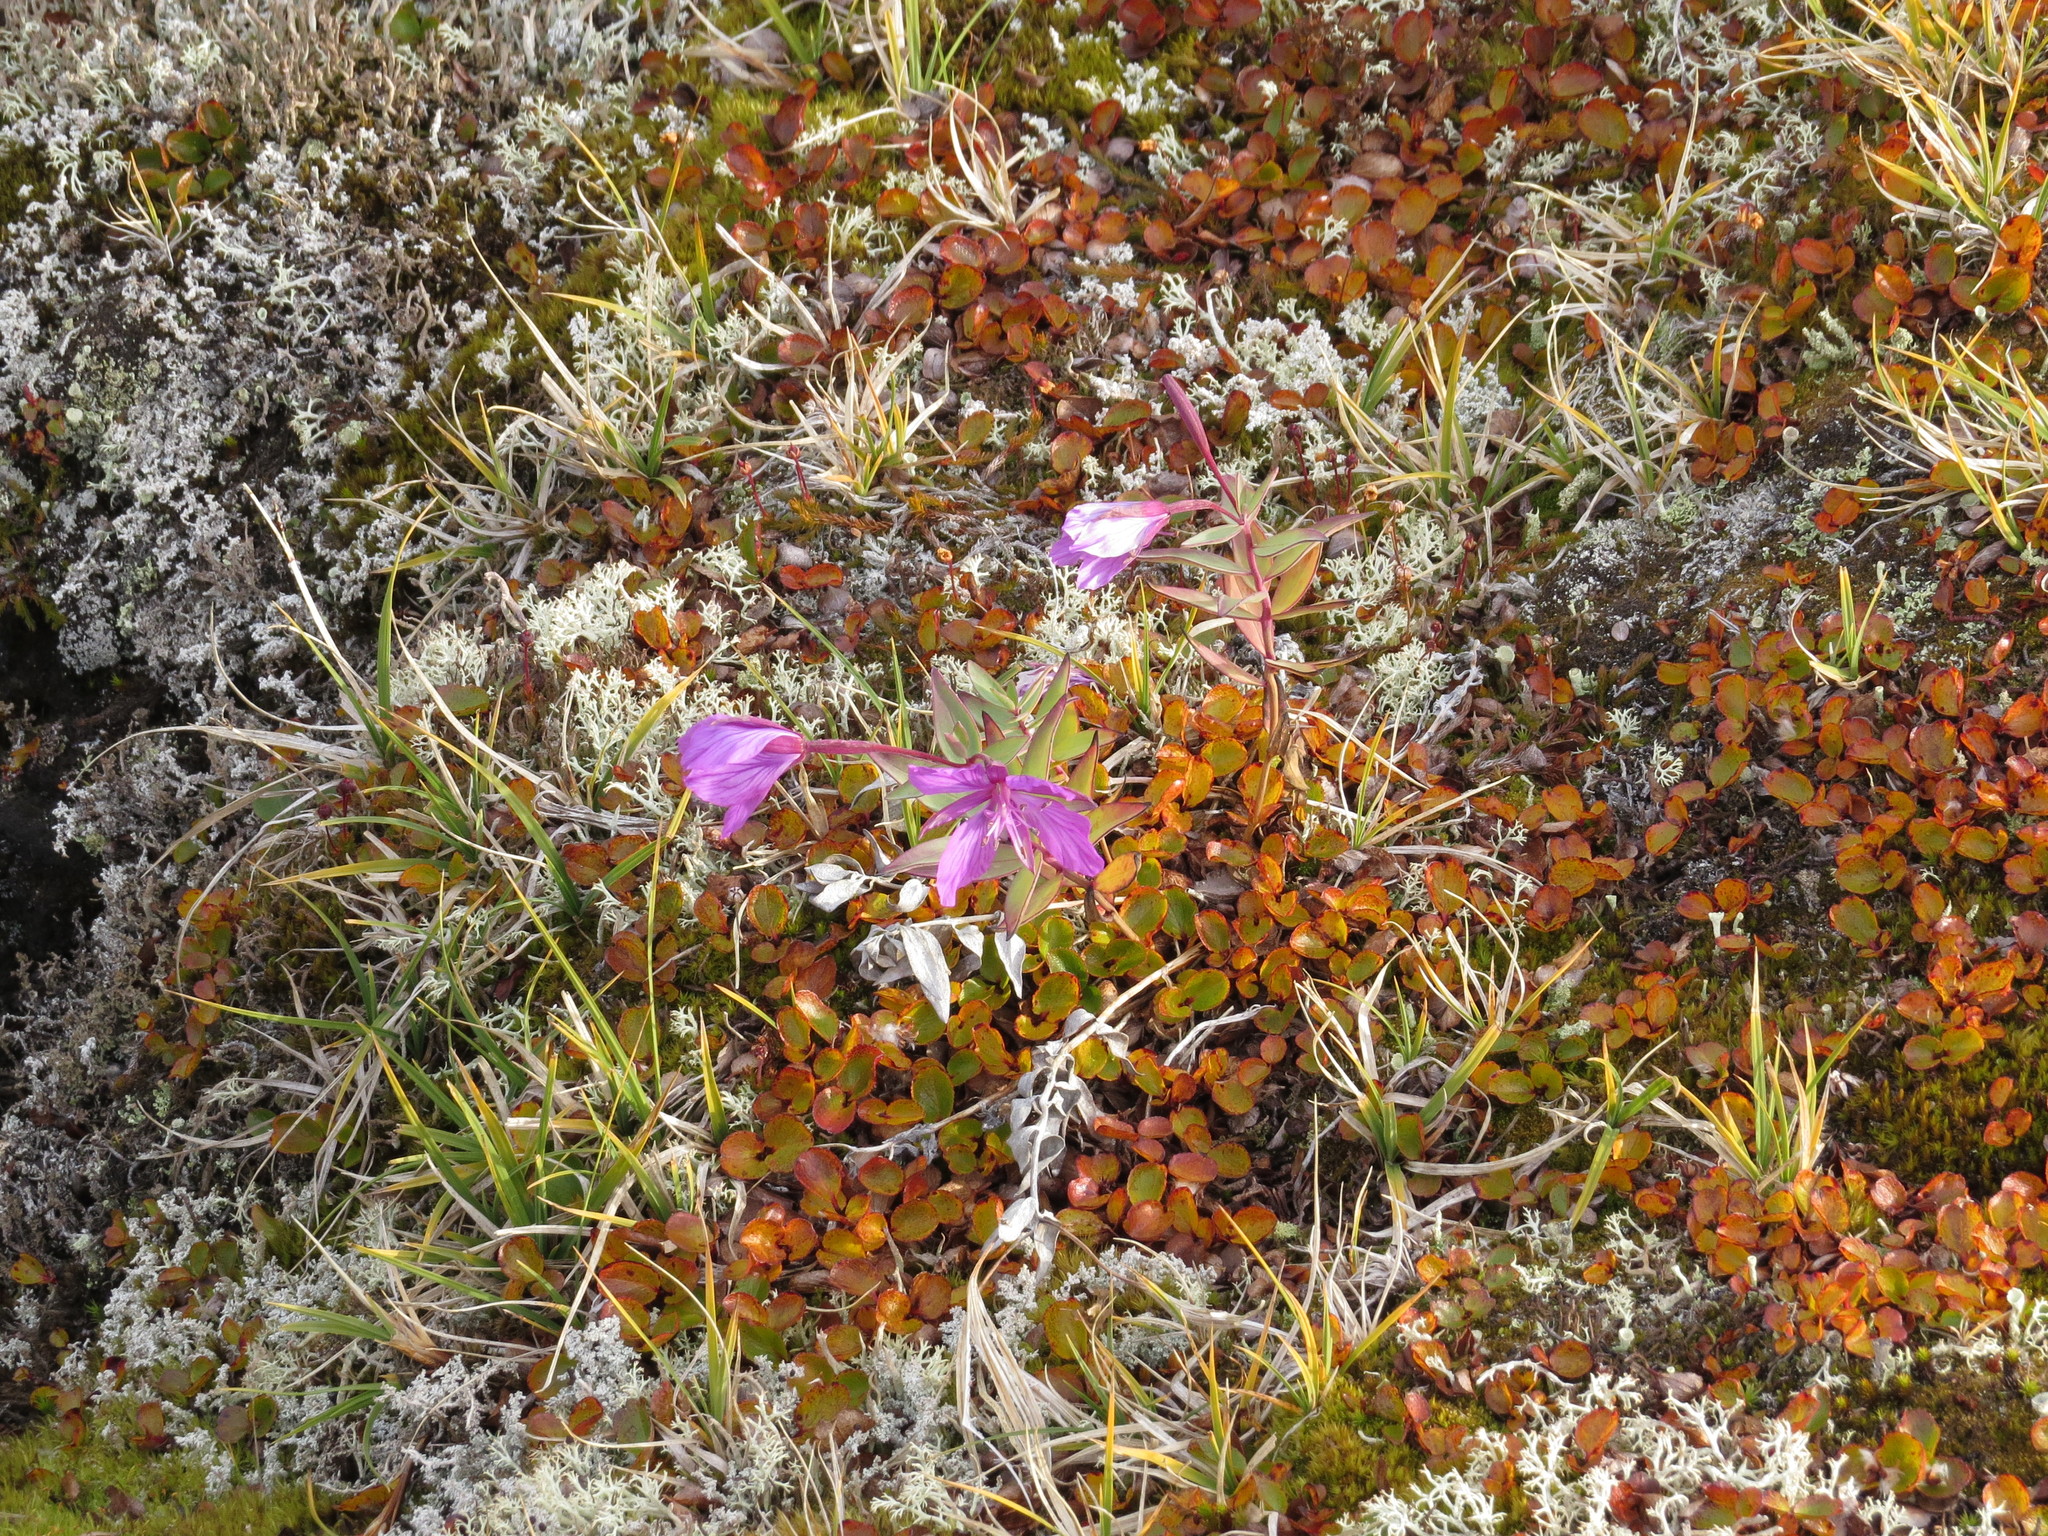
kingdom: Plantae
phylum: Tracheophyta
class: Magnoliopsida
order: Myrtales
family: Onagraceae
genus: Chamaenerion
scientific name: Chamaenerion latifolium
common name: Dwarf fireweed
